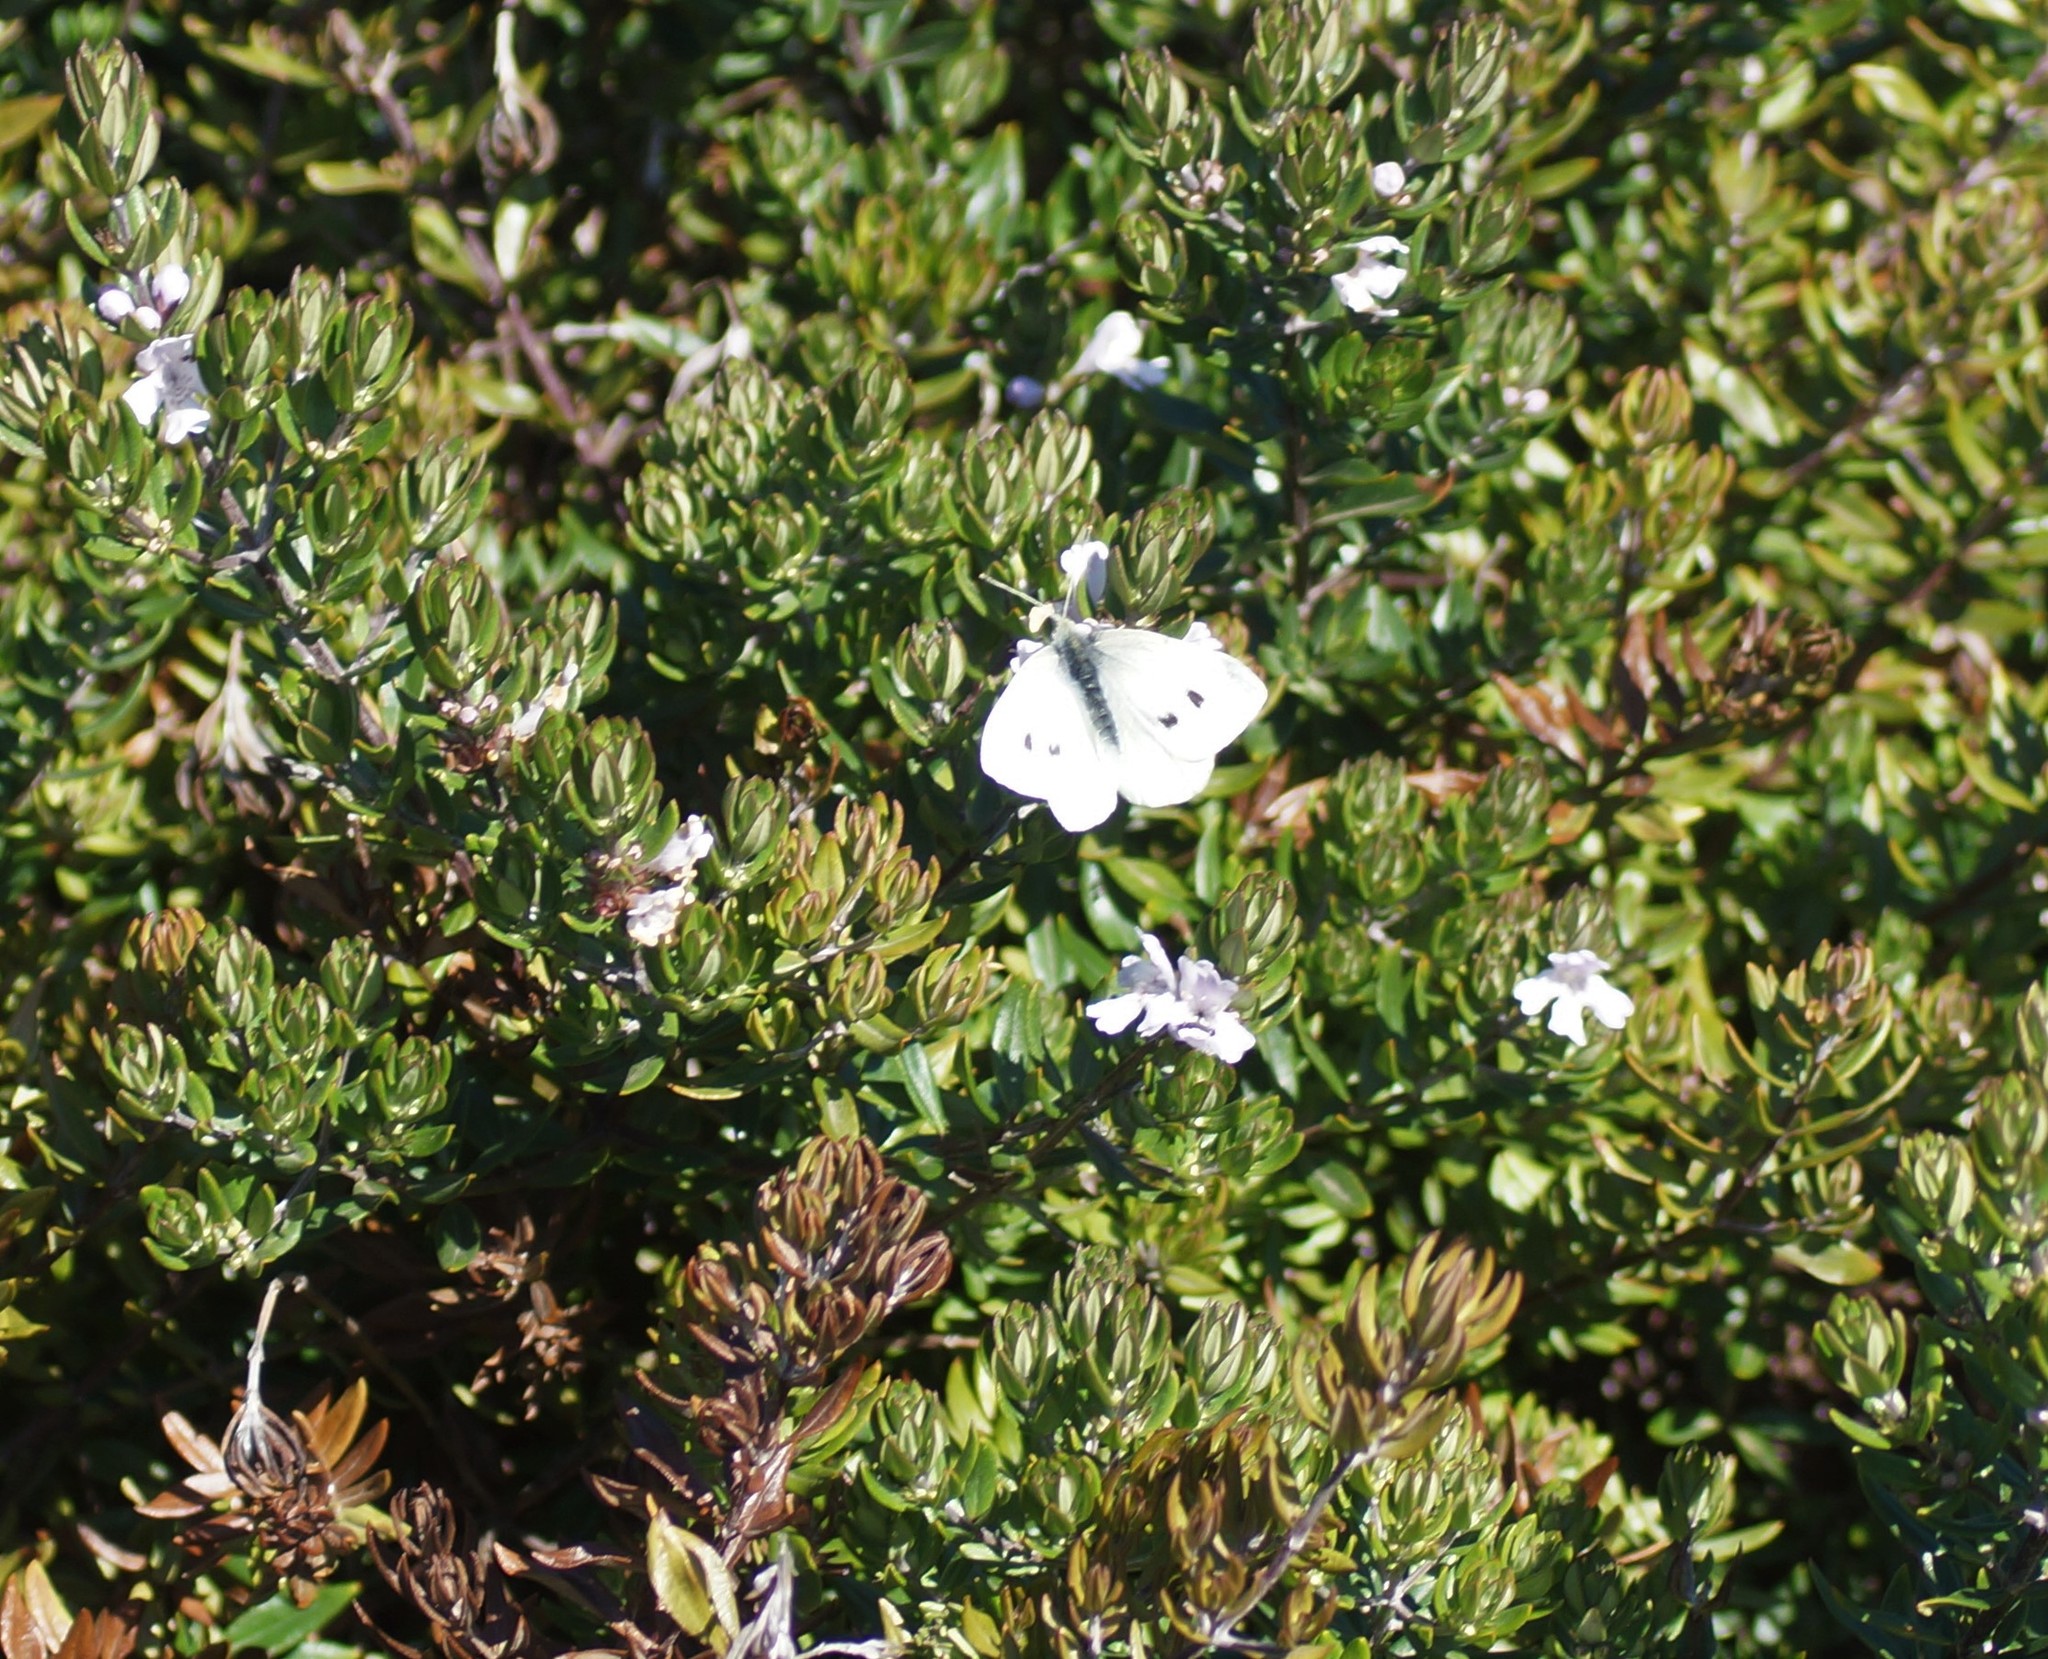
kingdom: Animalia
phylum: Arthropoda
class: Insecta
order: Lepidoptera
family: Pieridae
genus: Pieris
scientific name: Pieris rapae
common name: Small white
